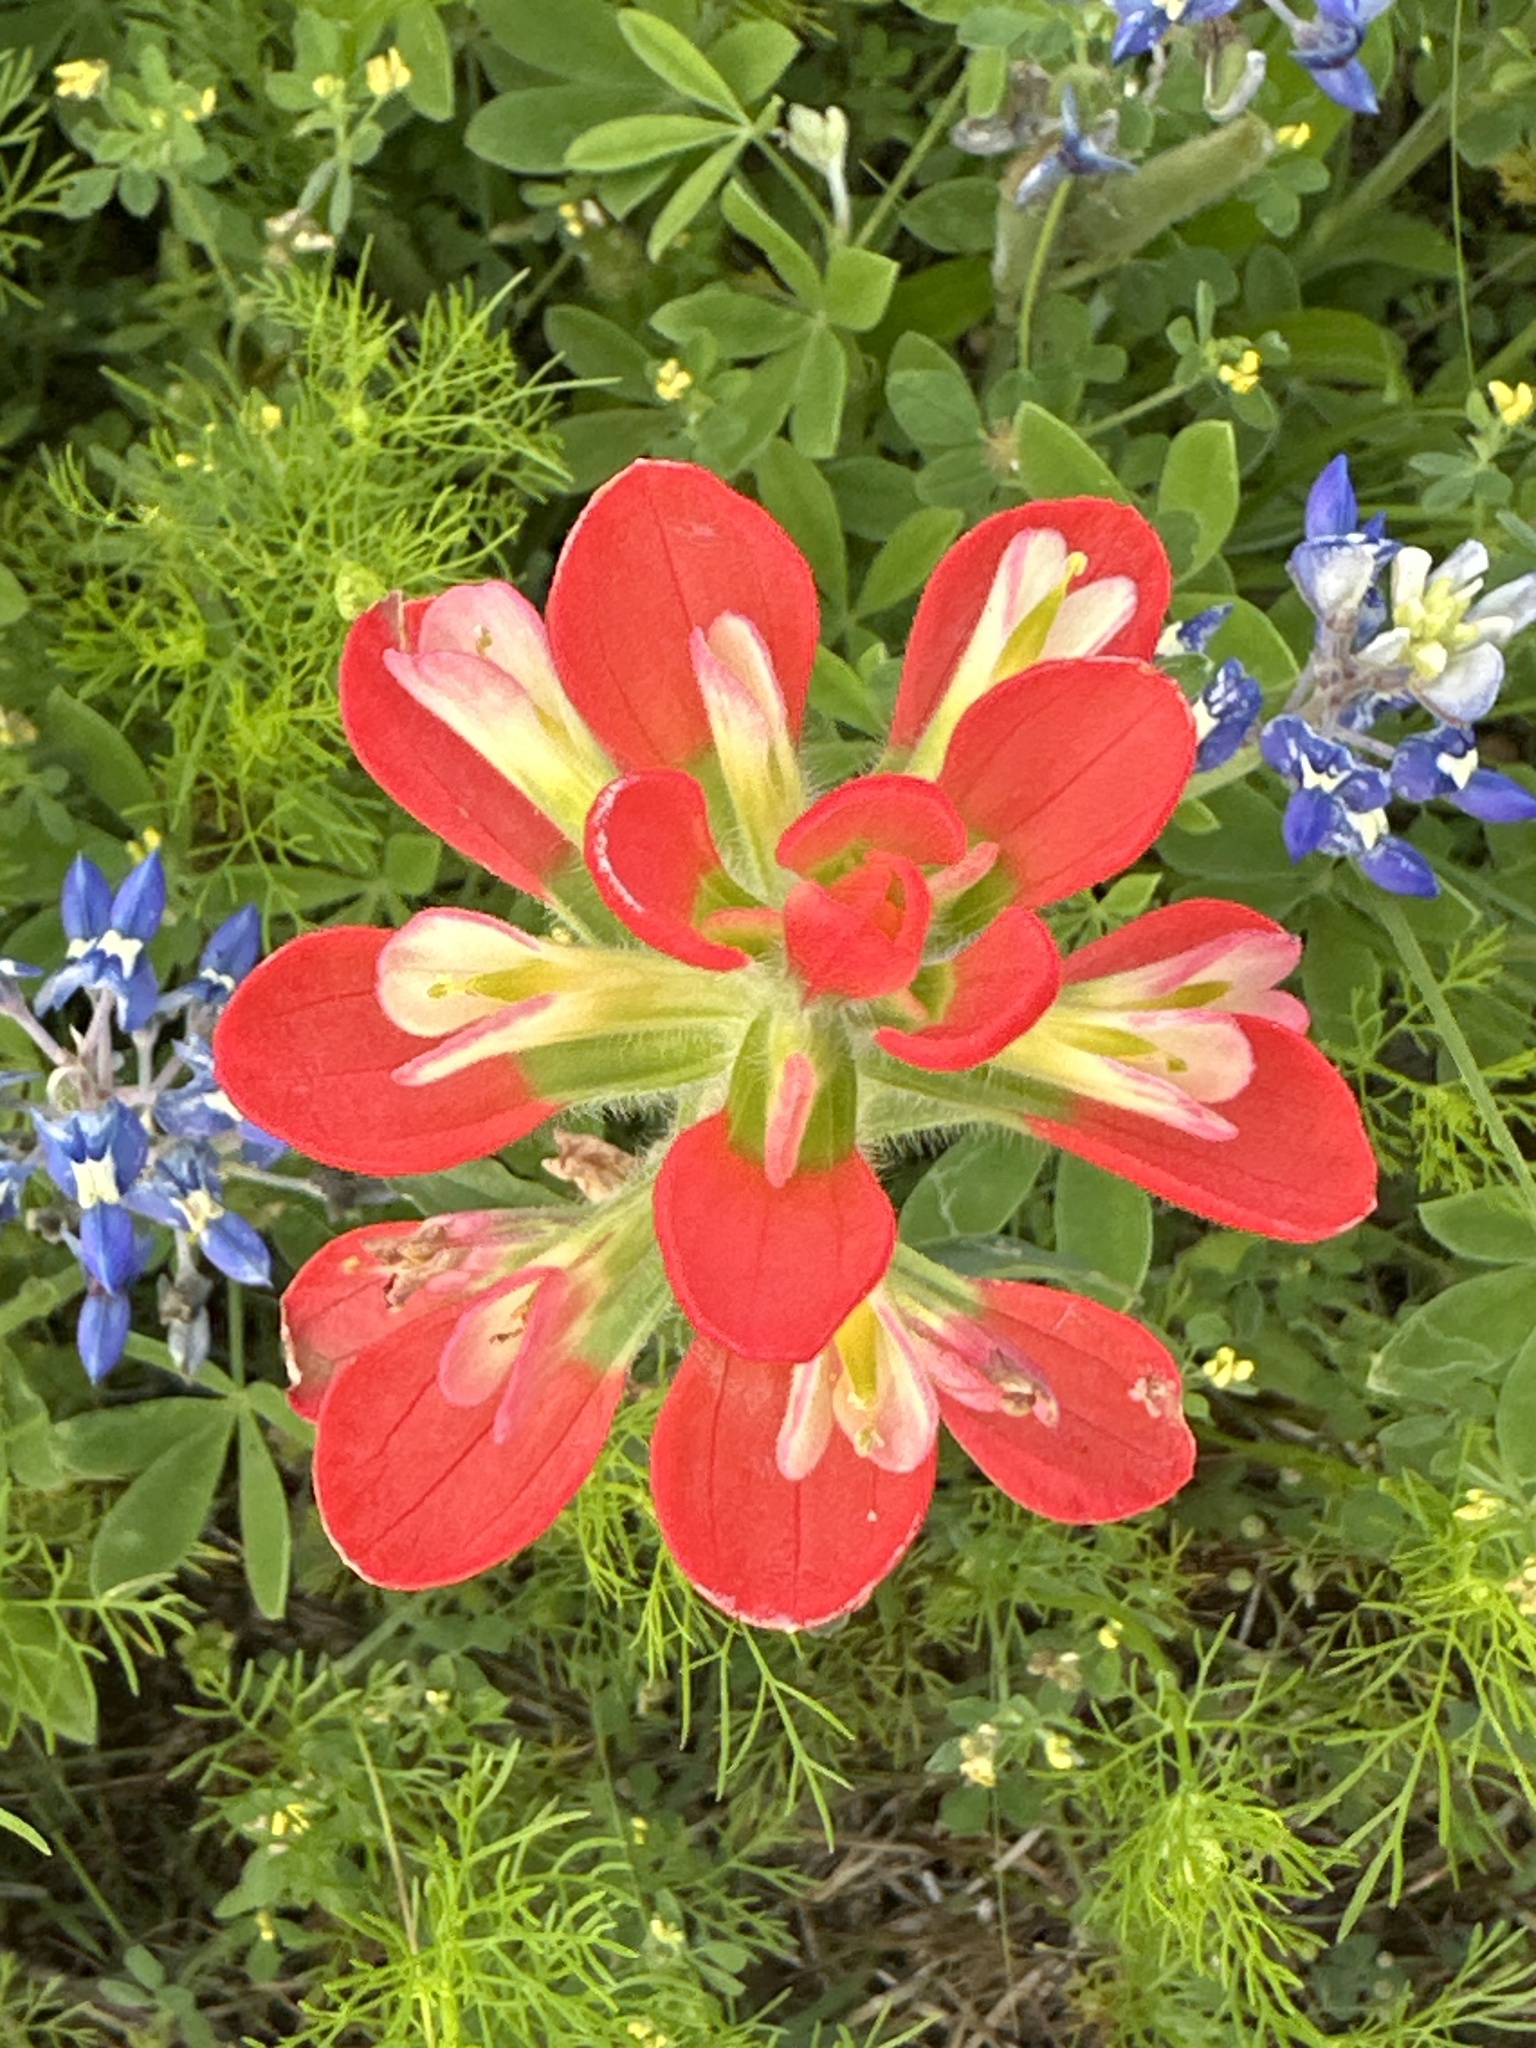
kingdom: Plantae
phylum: Tracheophyta
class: Magnoliopsida
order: Lamiales
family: Orobanchaceae
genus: Castilleja
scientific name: Castilleja indivisa
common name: Texas paintbrush
